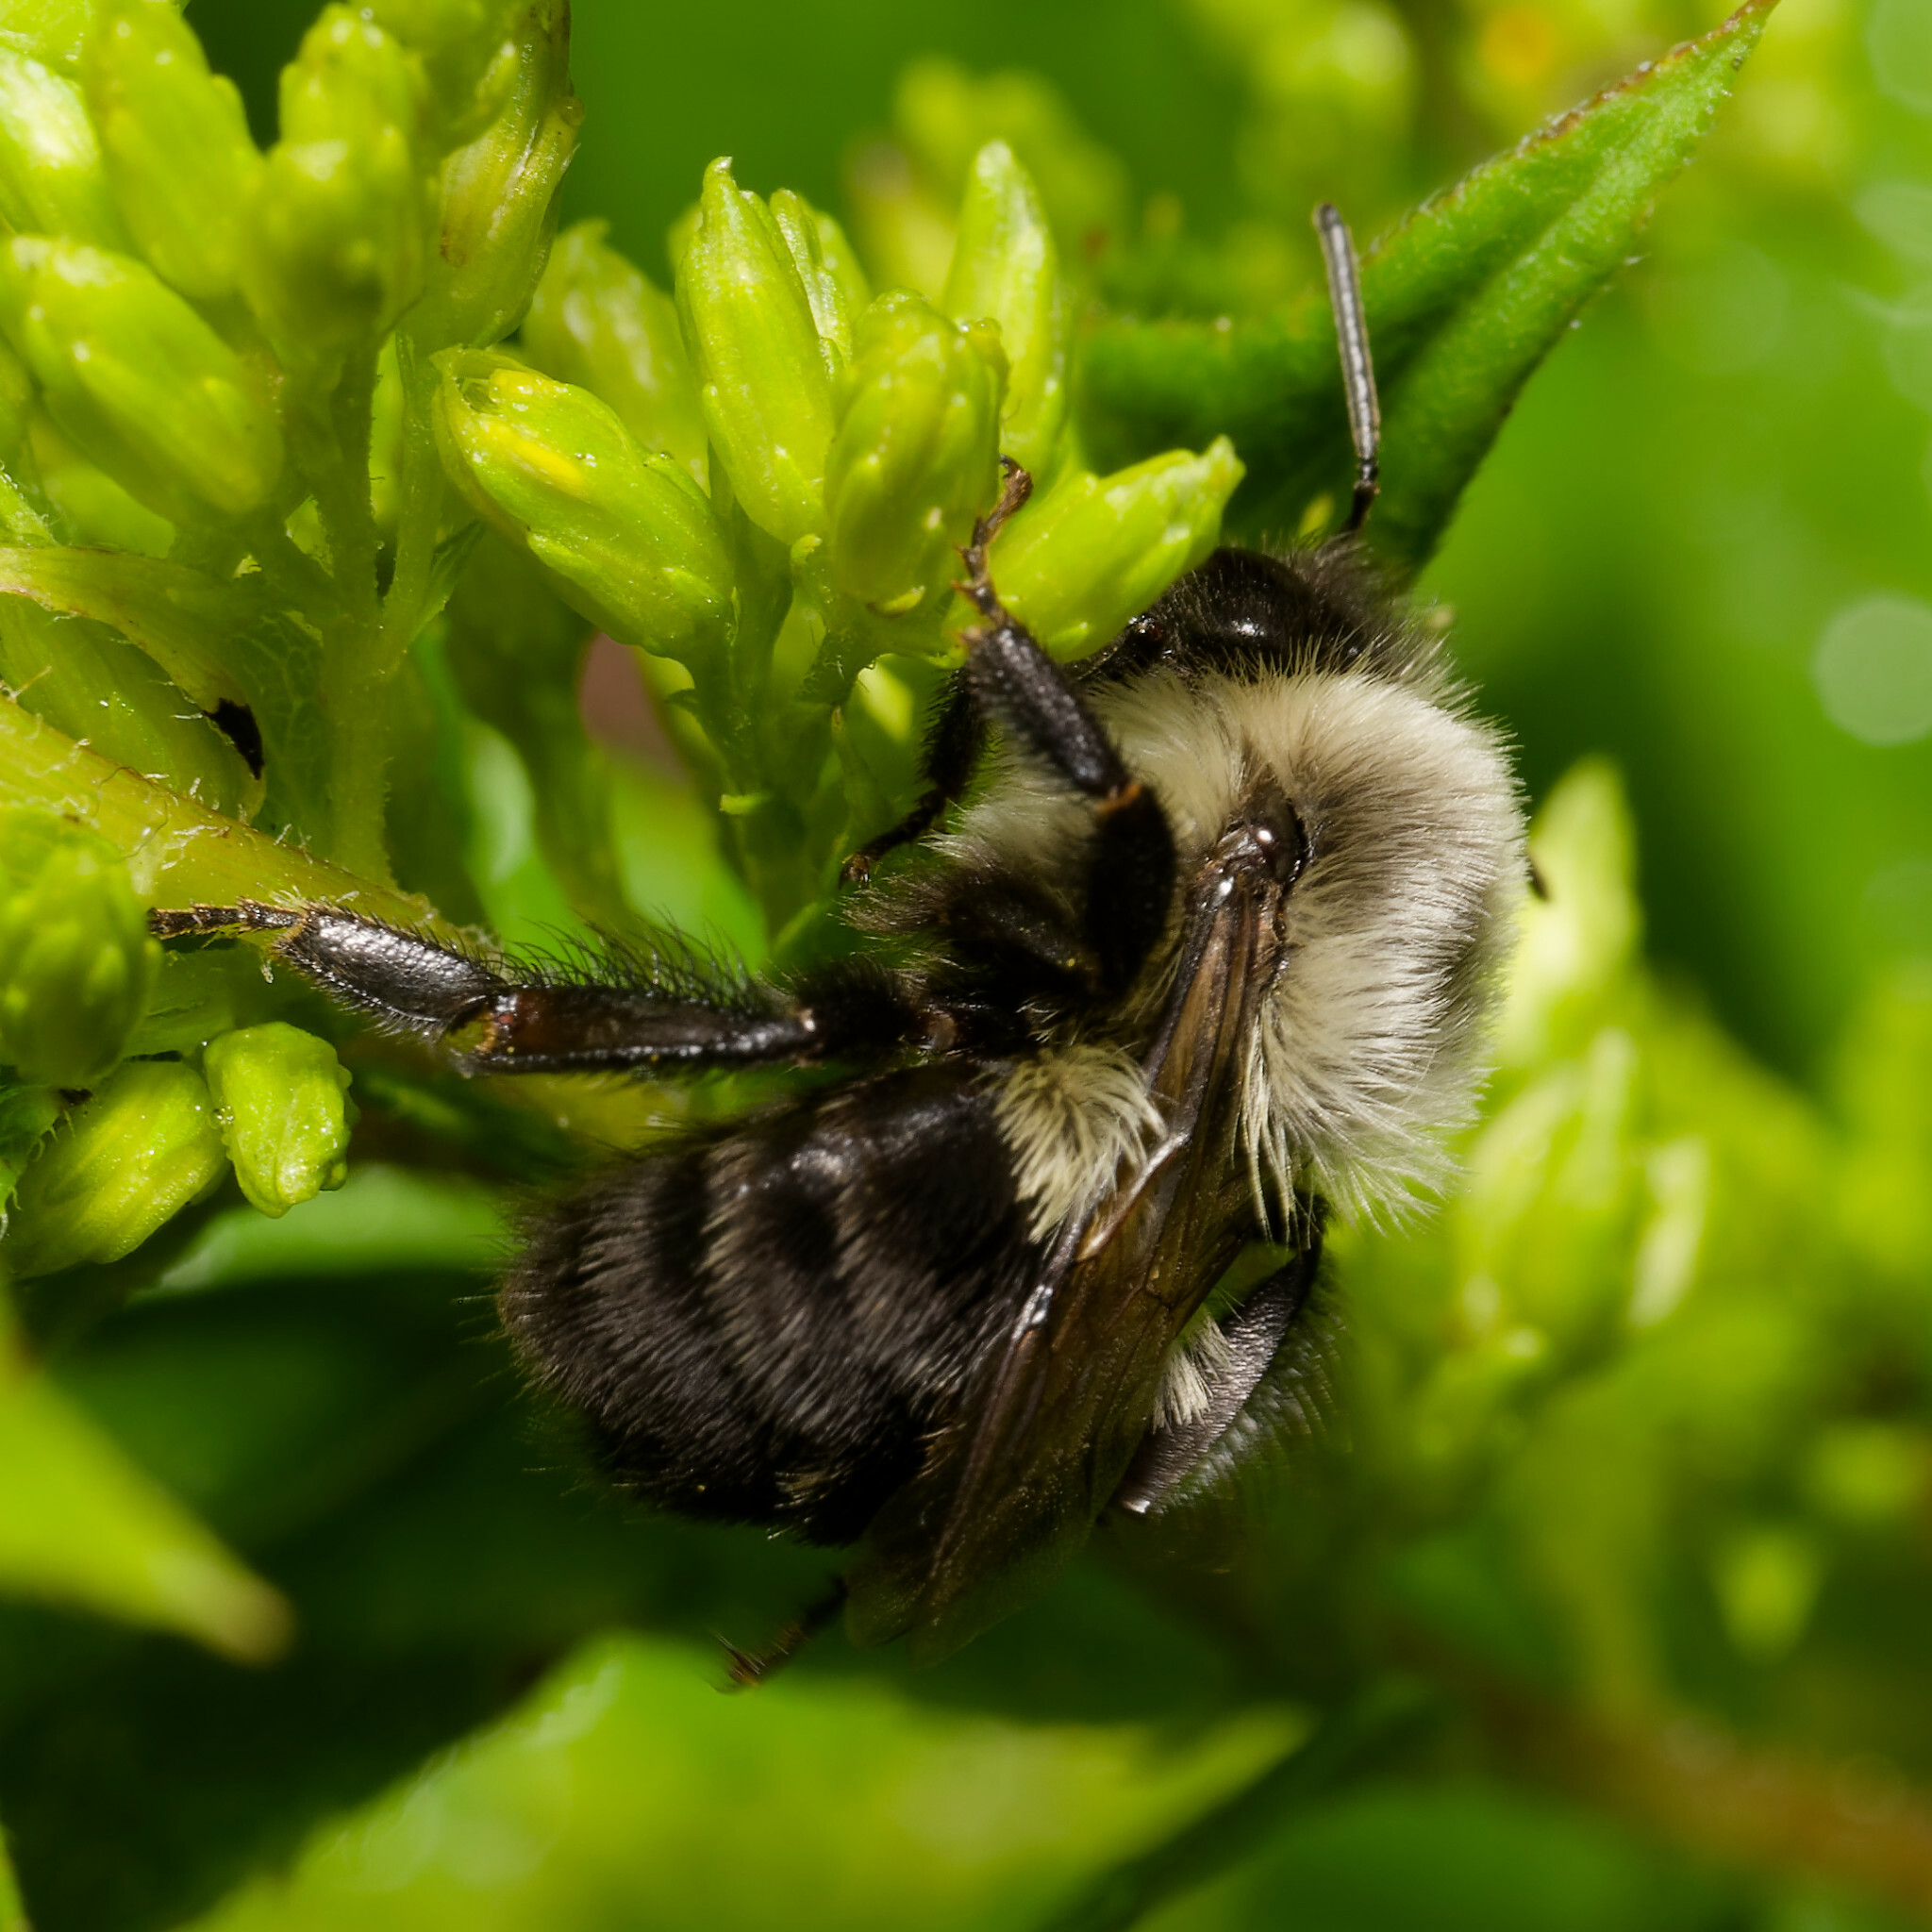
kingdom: Animalia
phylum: Arthropoda
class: Insecta
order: Hymenoptera
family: Apidae
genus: Bombus
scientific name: Bombus impatiens
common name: Common eastern bumble bee
